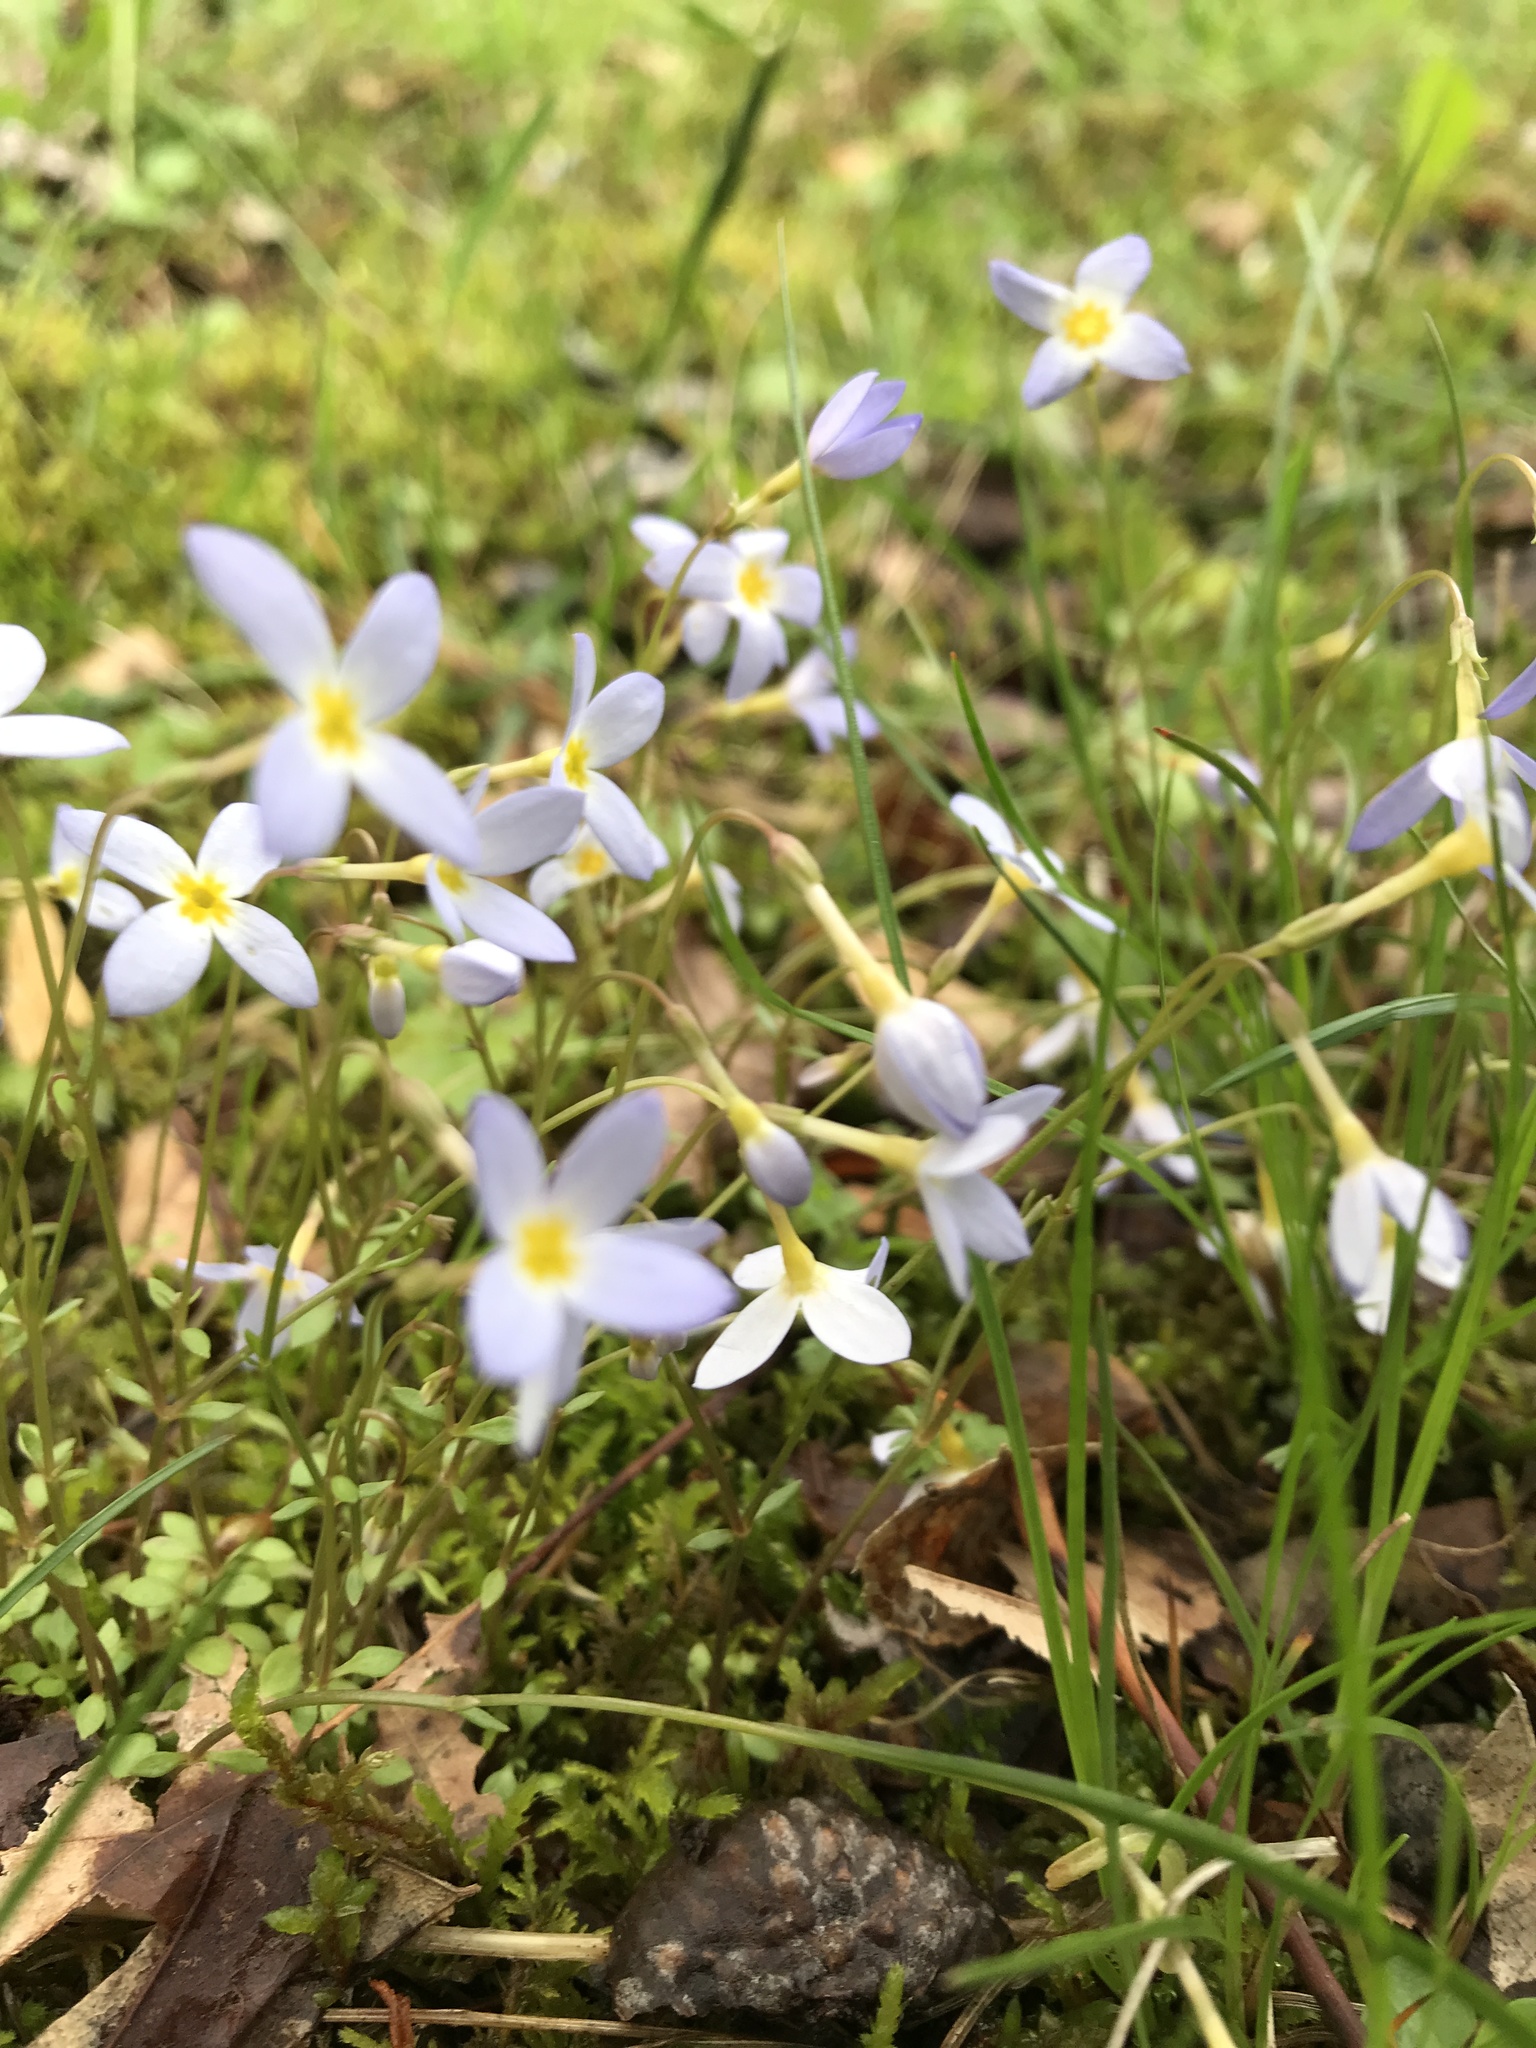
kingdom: Plantae
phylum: Tracheophyta
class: Magnoliopsida
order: Gentianales
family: Rubiaceae
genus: Houstonia
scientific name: Houstonia caerulea
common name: Bluets
